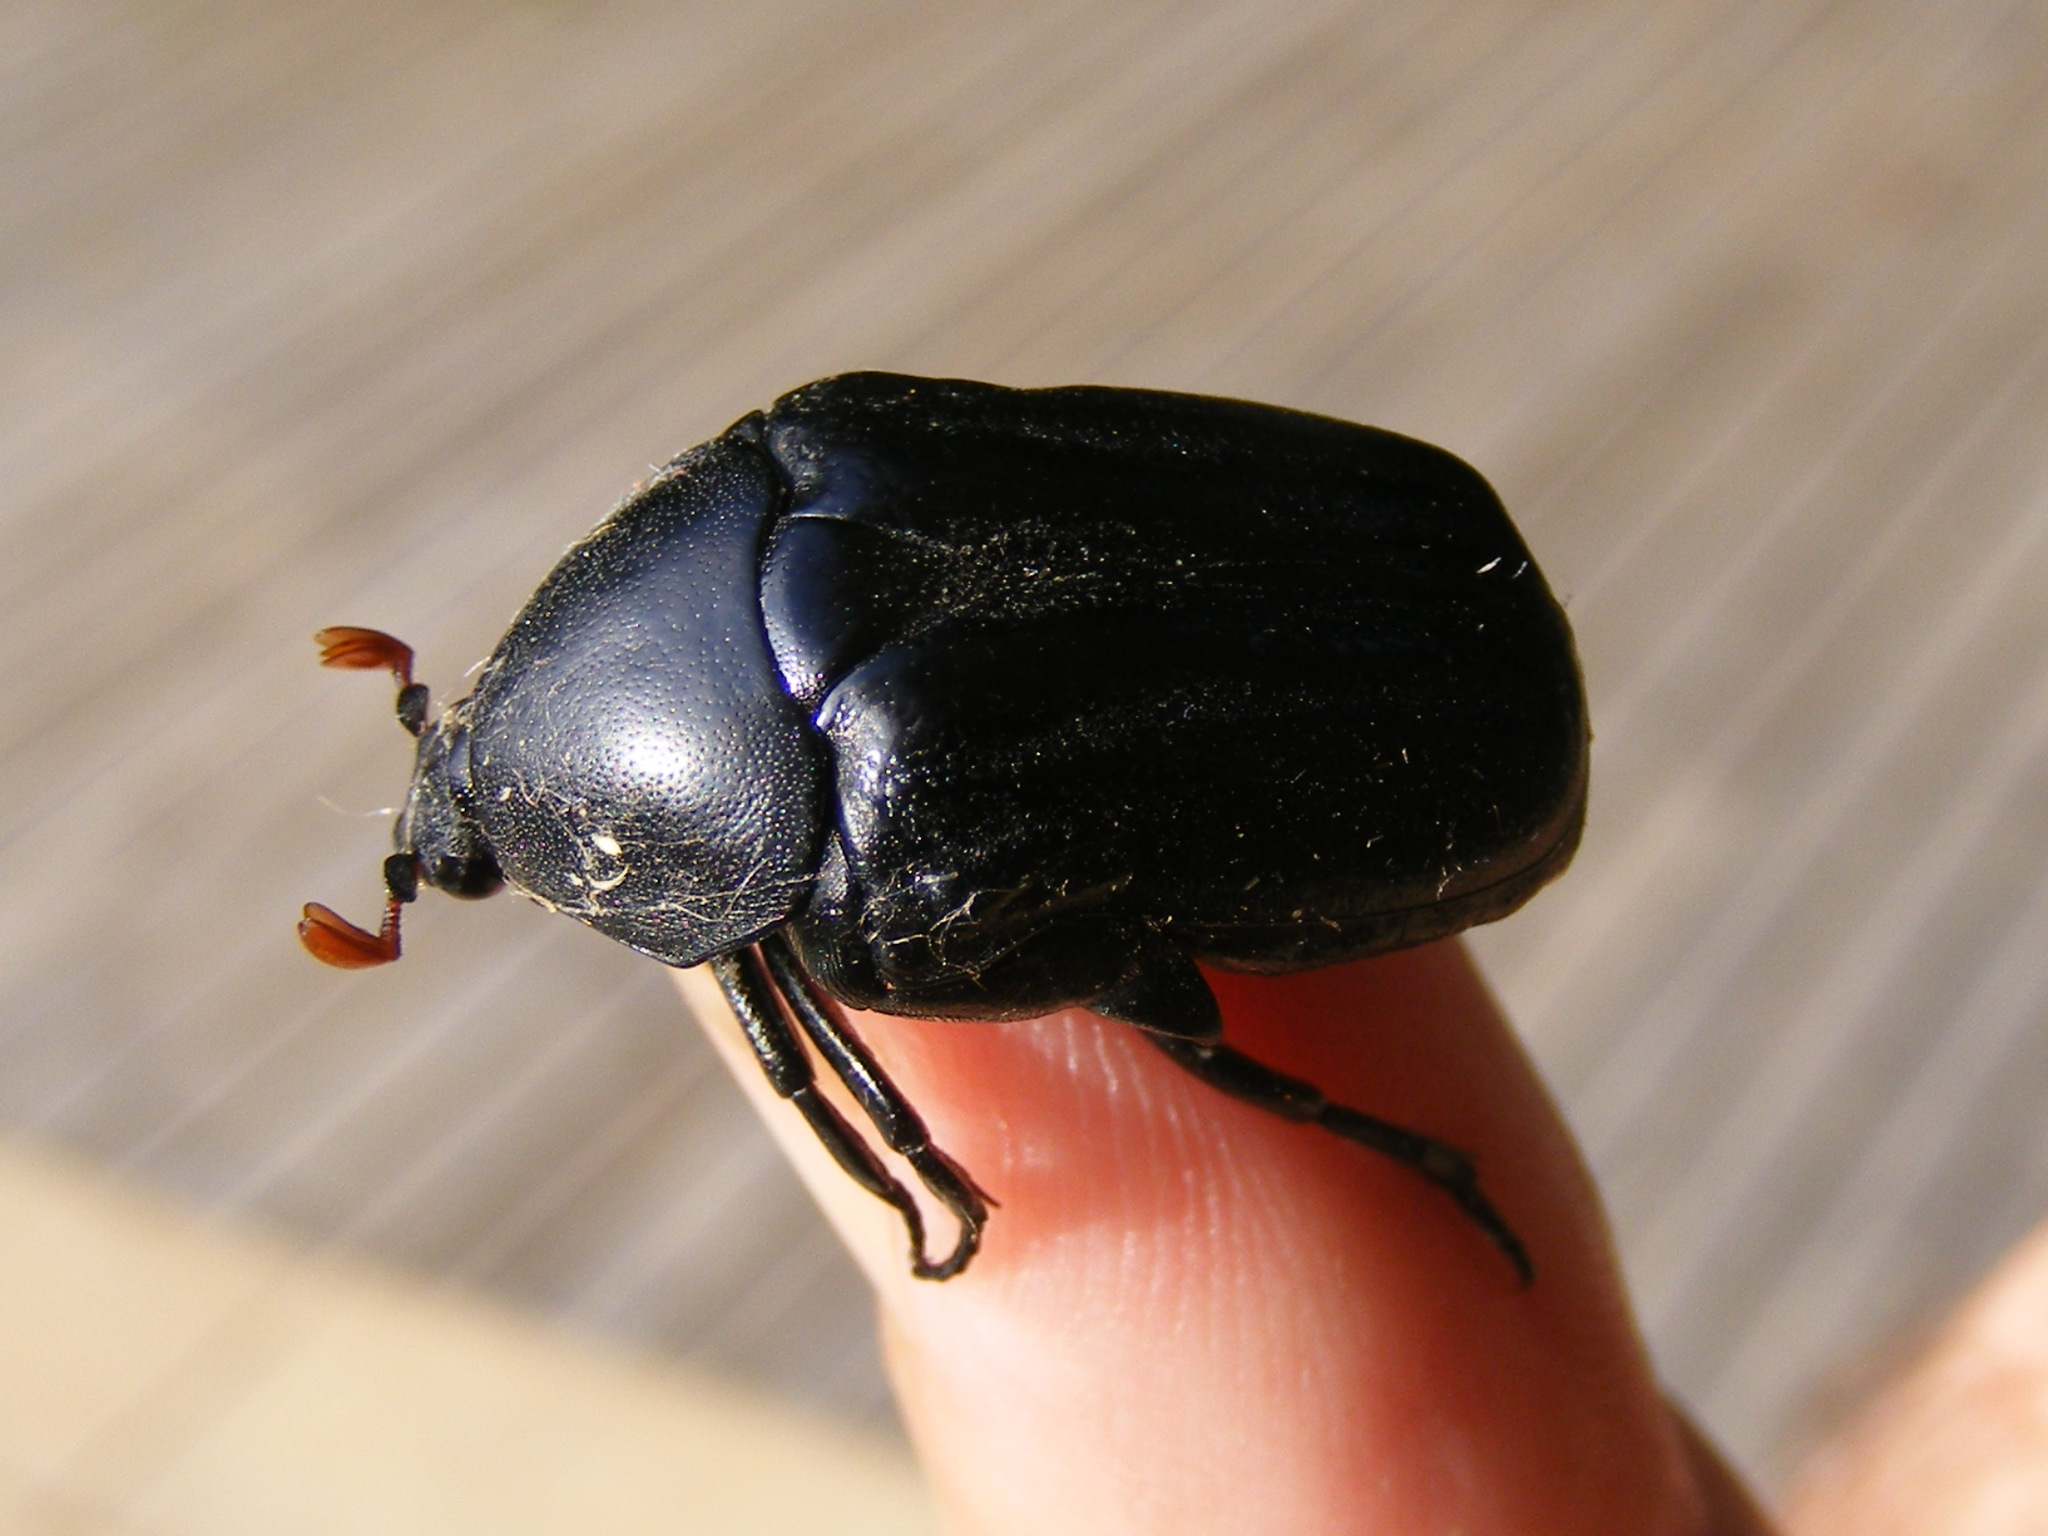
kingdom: Animalia
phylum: Arthropoda
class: Insecta
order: Coleoptera
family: Scarabaeidae
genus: Oplostomus
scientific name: Oplostomus fuligineus
